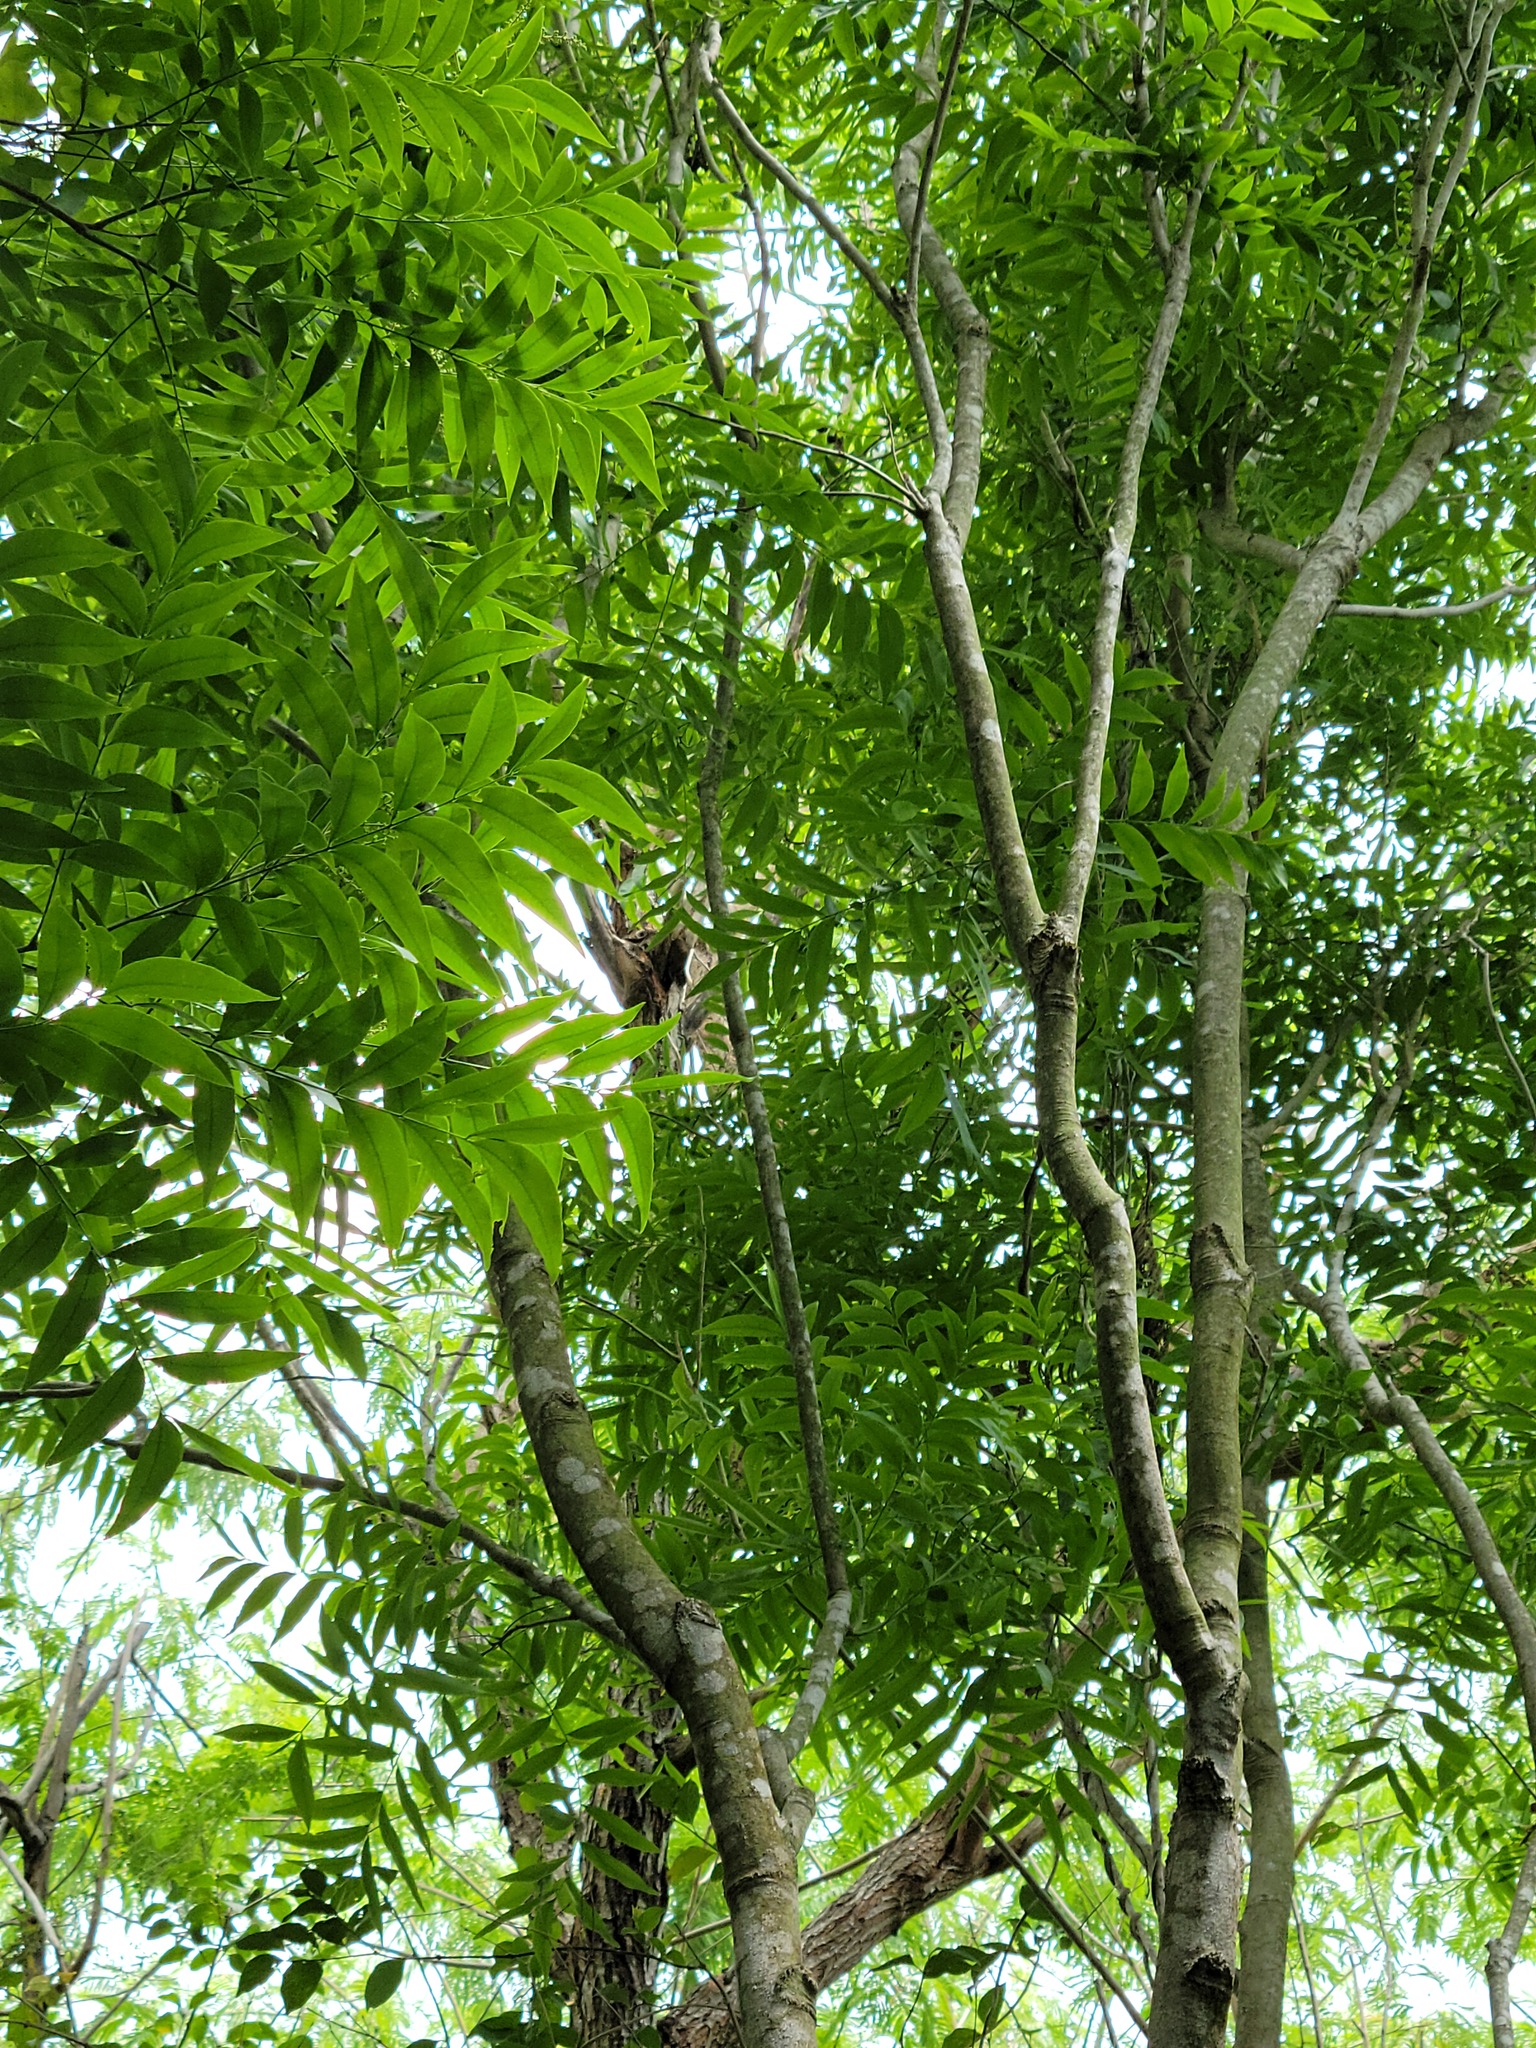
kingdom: Plantae
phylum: Tracheophyta
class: Magnoliopsida
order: Sapindales
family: Sapindaceae
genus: Sapindus
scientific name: Sapindus drummondii
